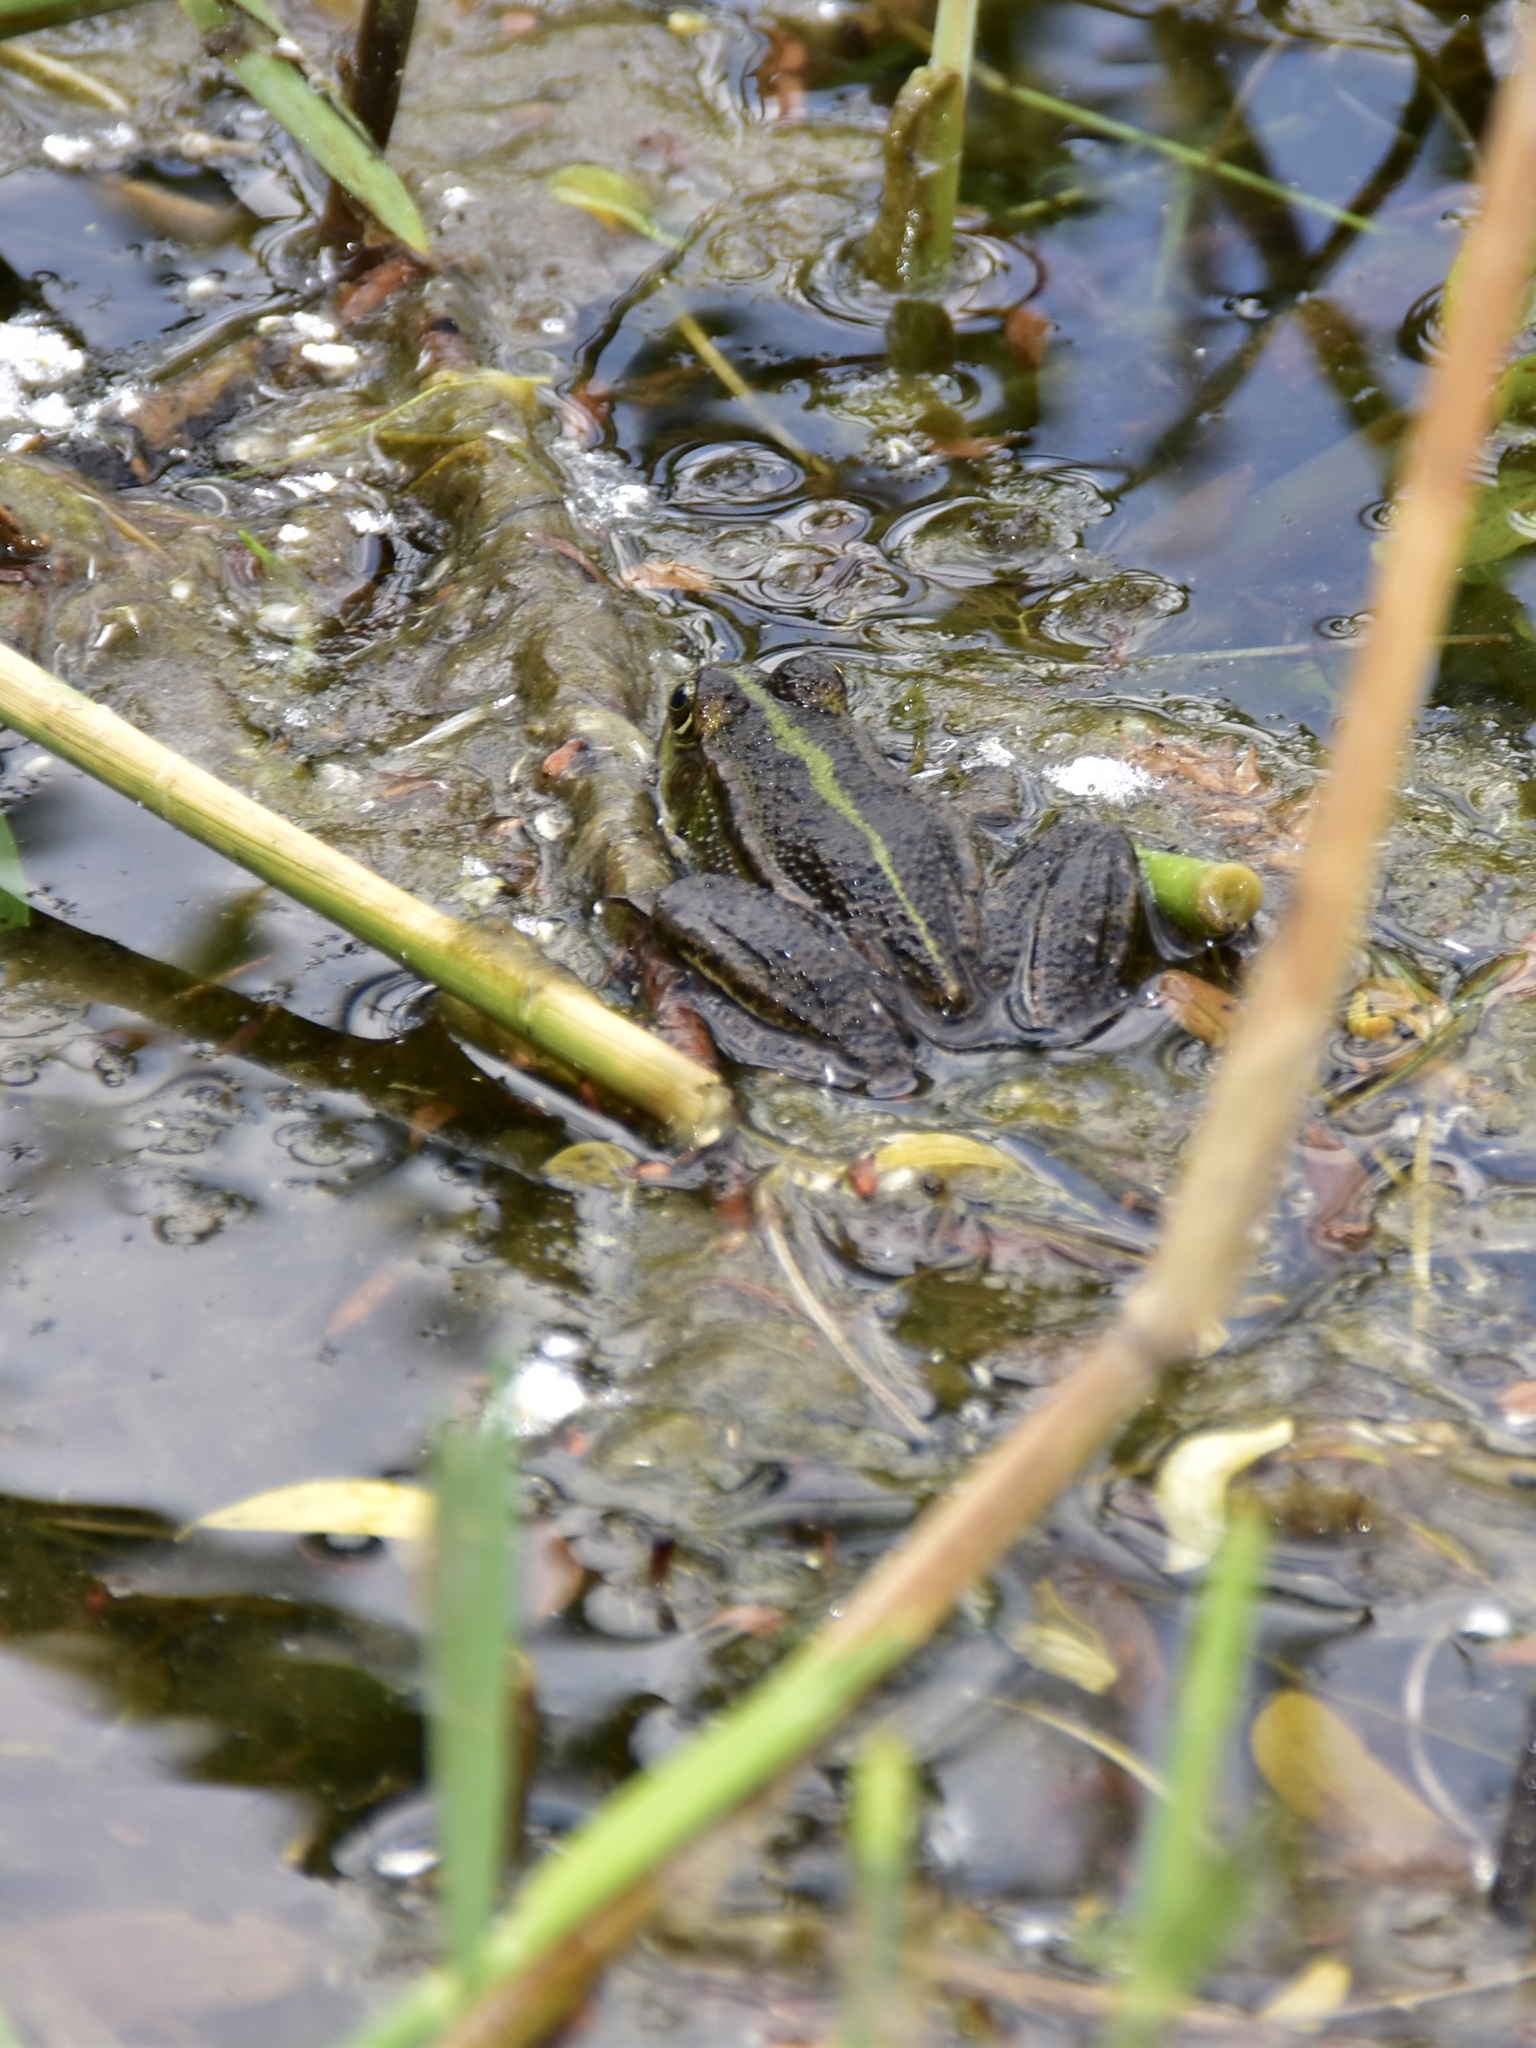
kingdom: Animalia
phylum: Chordata
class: Amphibia
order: Anura
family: Ranidae
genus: Pelophylax
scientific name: Pelophylax
